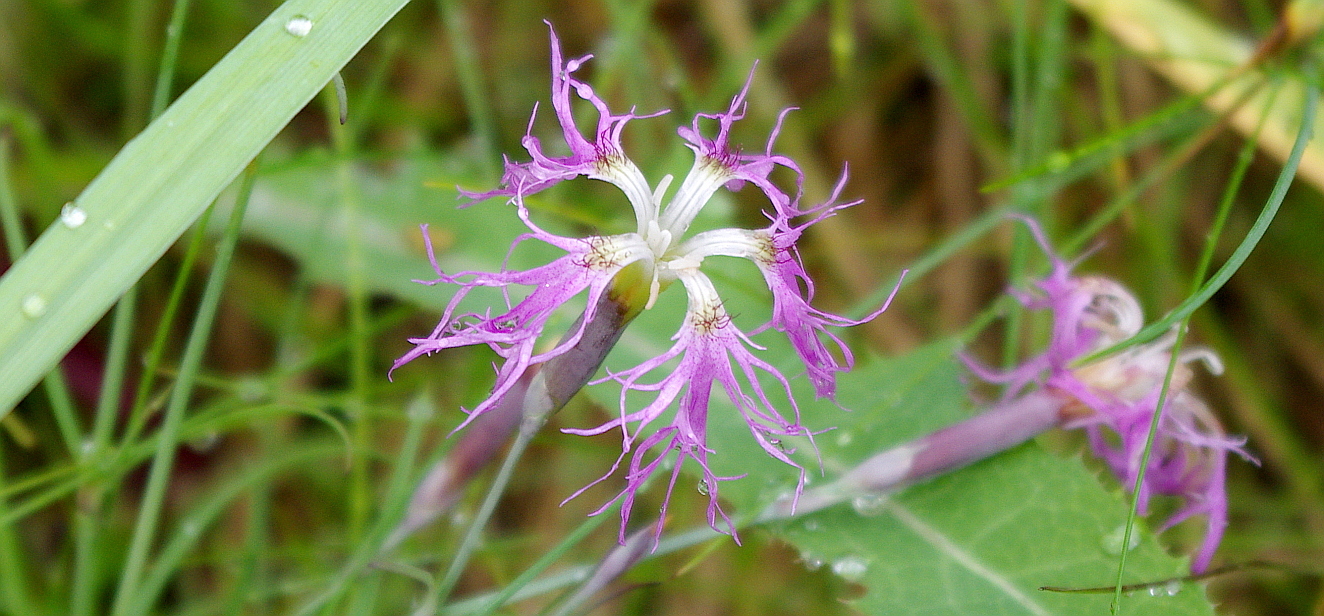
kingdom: Plantae
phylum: Tracheophyta
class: Magnoliopsida
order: Caryophyllales
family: Caryophyllaceae
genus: Dianthus
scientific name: Dianthus superbus
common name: Fringed pink
